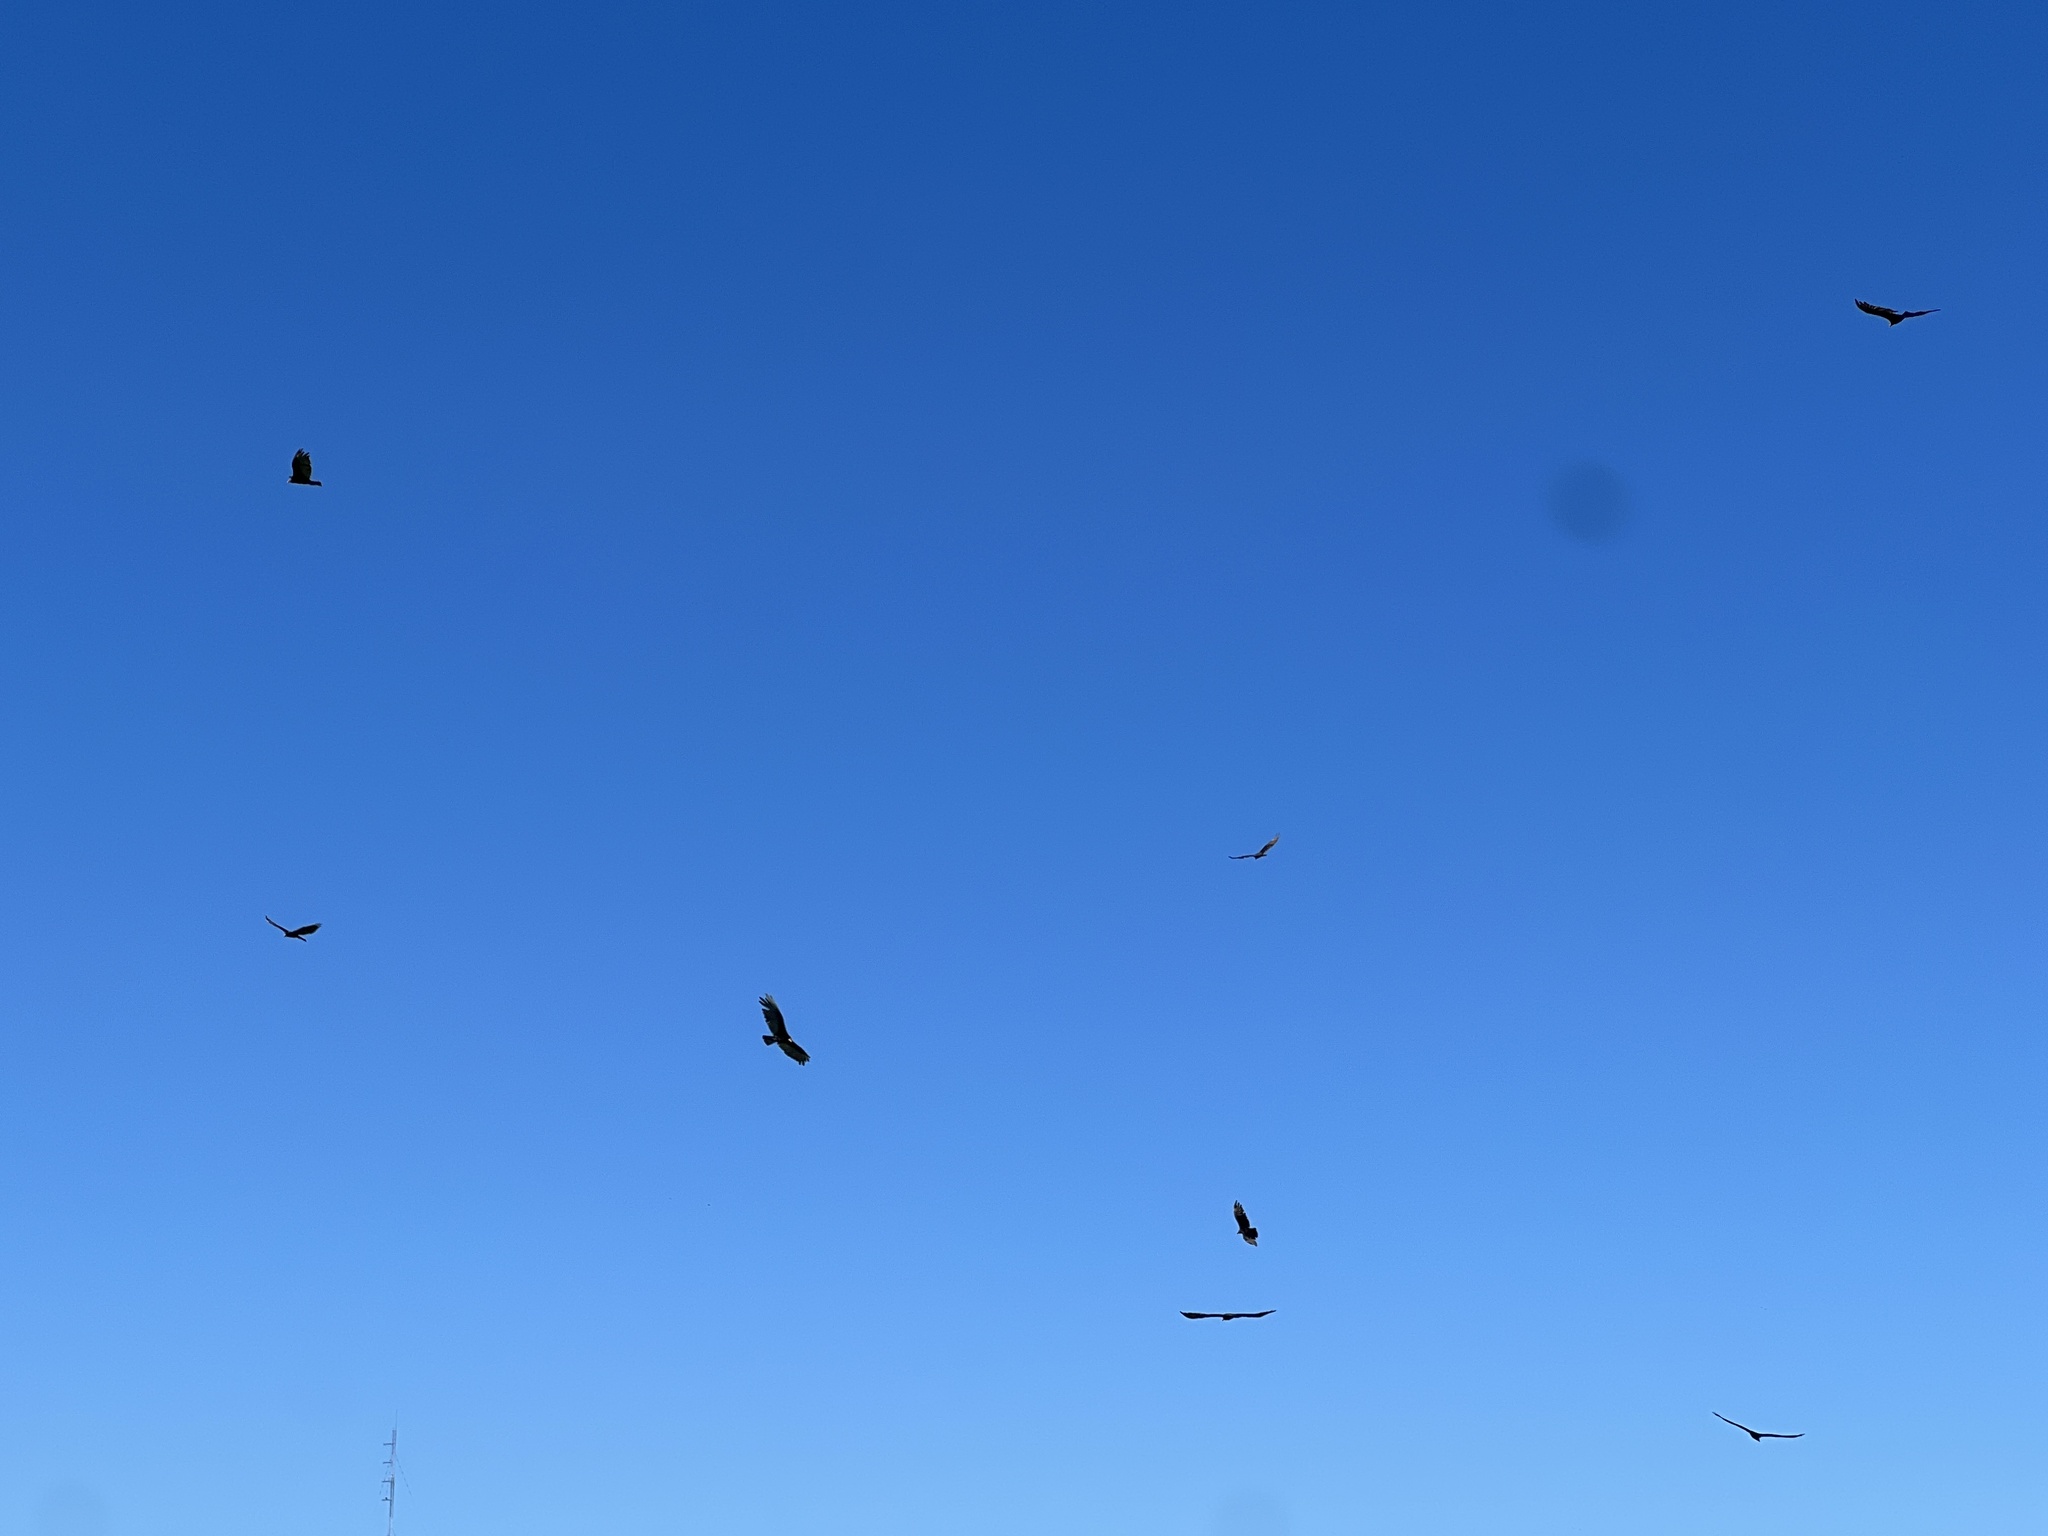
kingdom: Animalia
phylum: Chordata
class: Aves
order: Accipitriformes
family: Cathartidae
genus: Cathartes
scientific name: Cathartes burrovianus
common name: Lesser yellow-headed vulture
